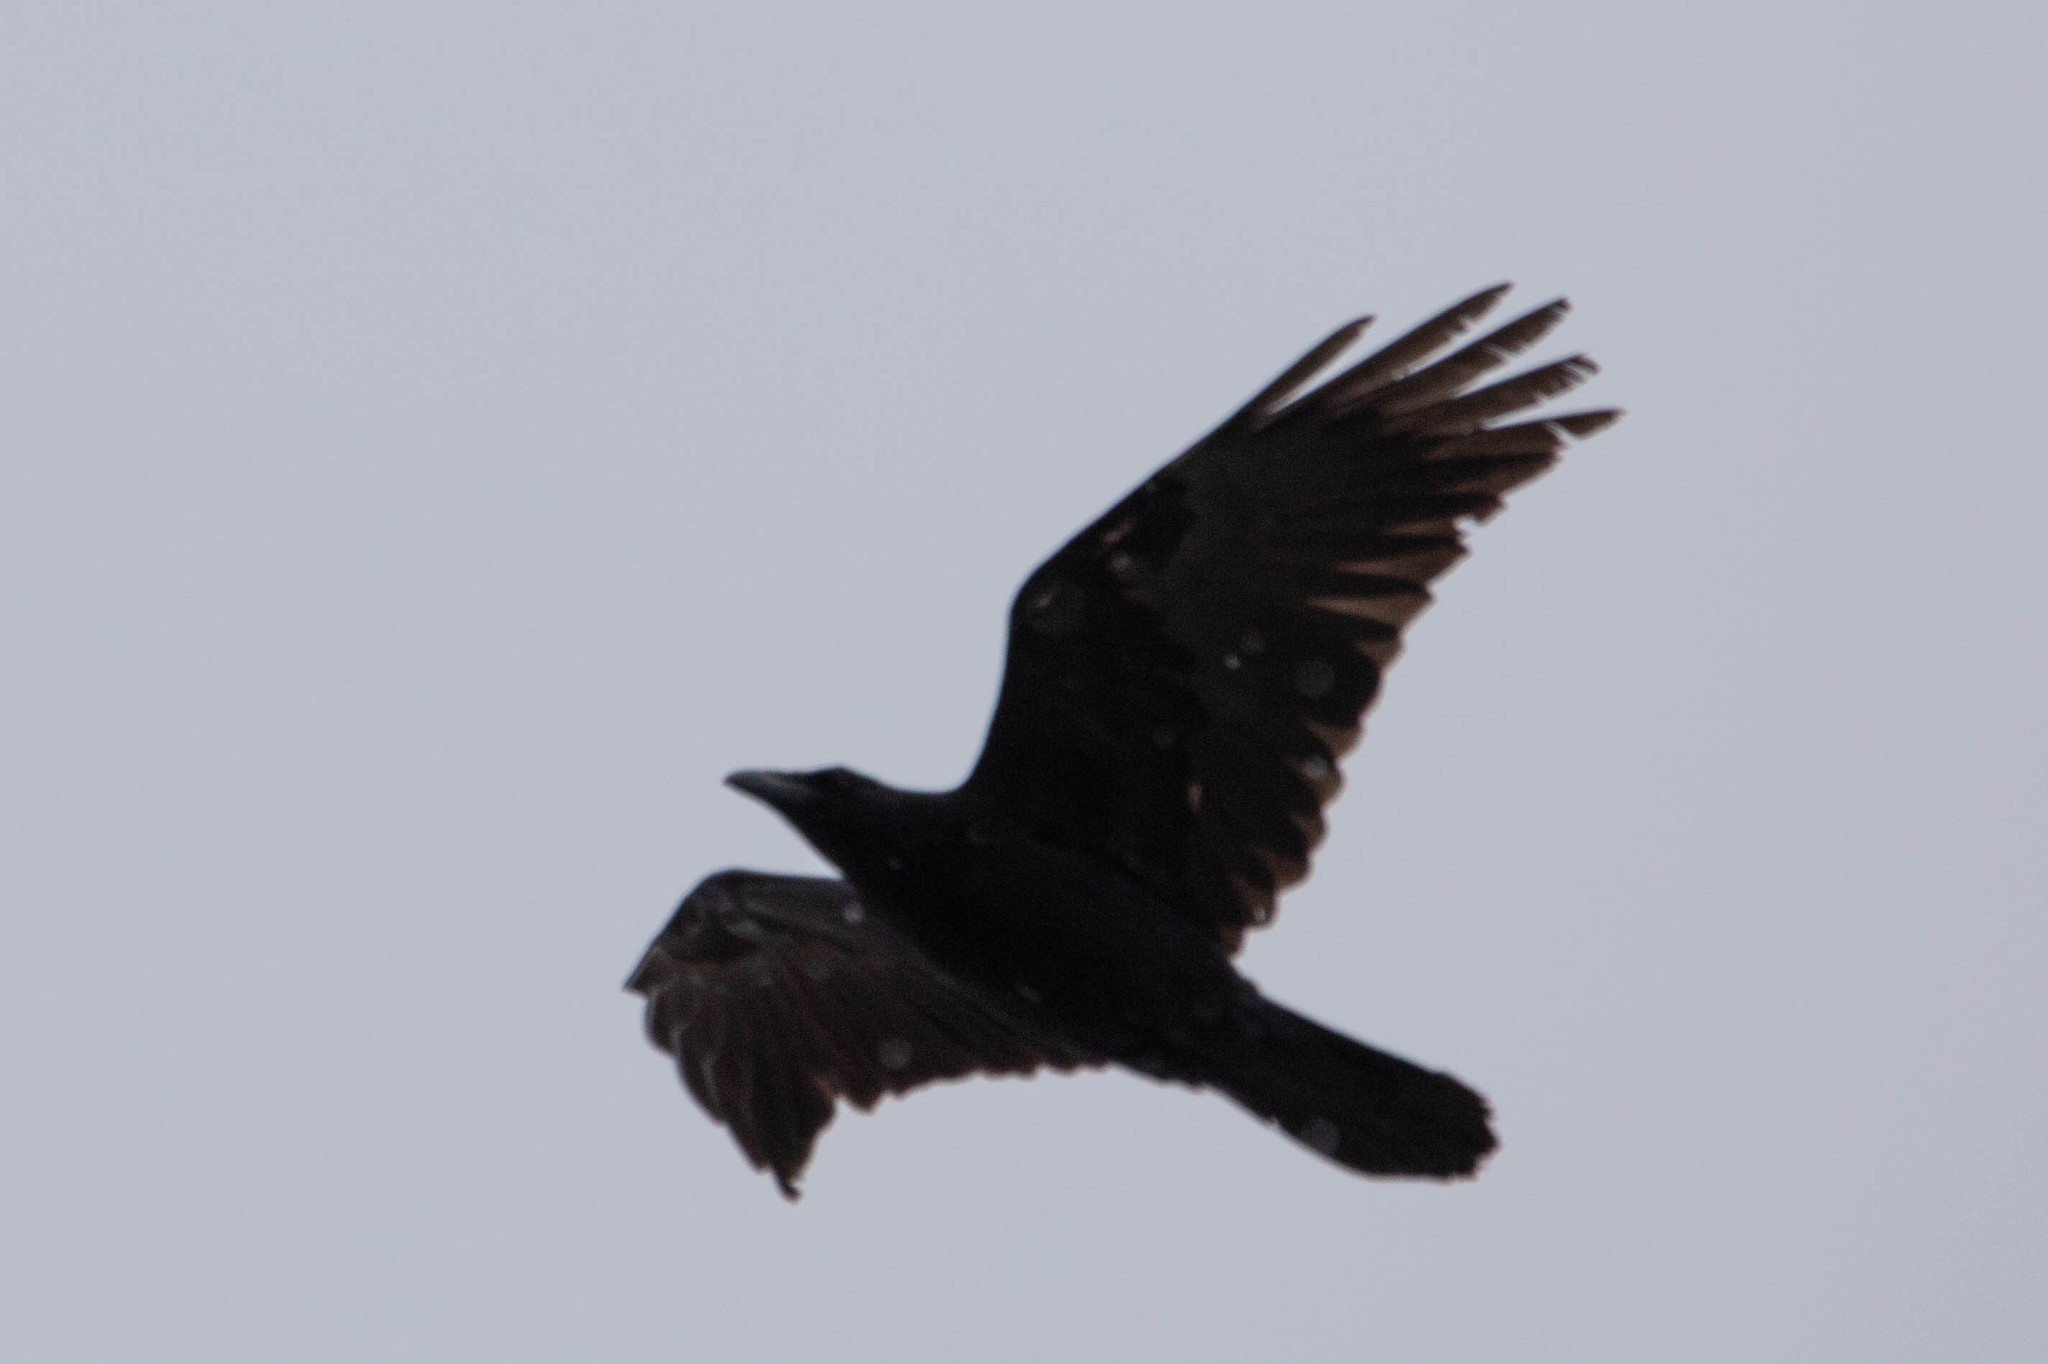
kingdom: Animalia
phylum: Chordata
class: Aves
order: Passeriformes
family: Corvidae
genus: Corvus
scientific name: Corvus corax
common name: Common raven
